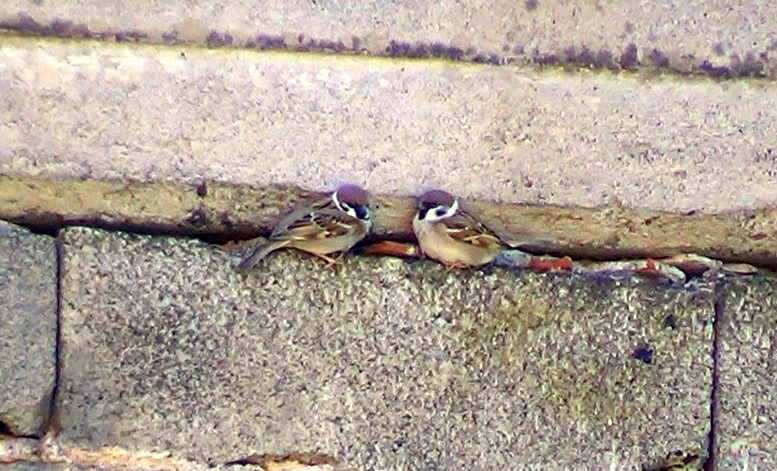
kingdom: Animalia
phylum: Chordata
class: Aves
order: Passeriformes
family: Passeridae
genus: Passer
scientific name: Passer montanus
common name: Eurasian tree sparrow
